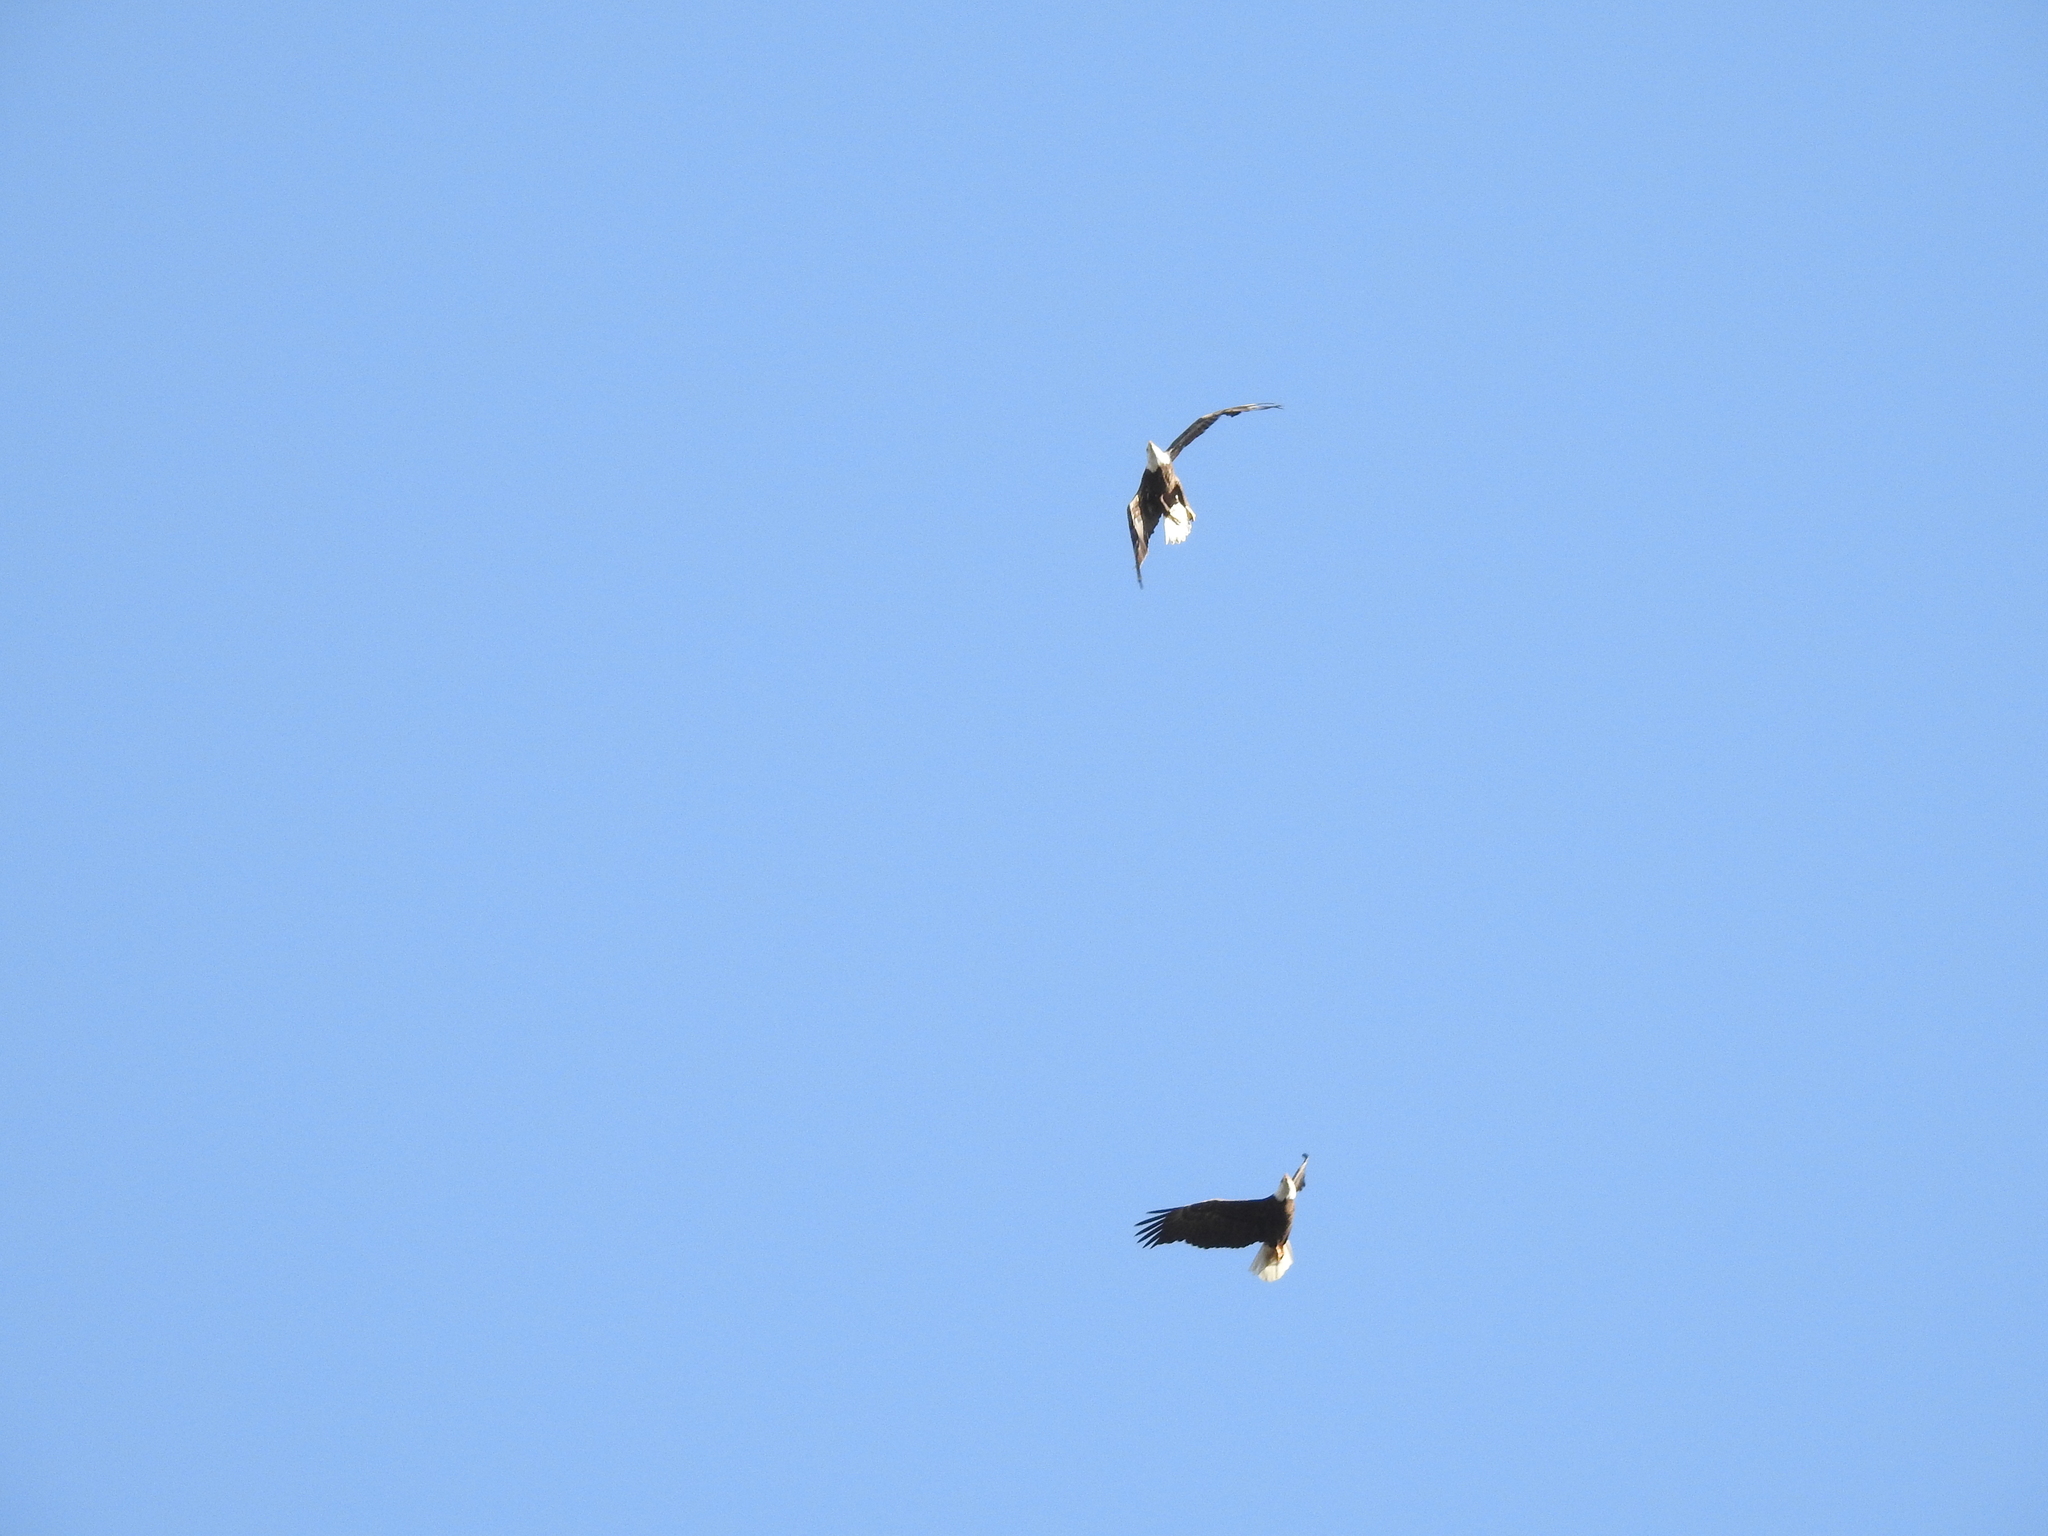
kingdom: Animalia
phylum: Chordata
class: Aves
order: Accipitriformes
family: Accipitridae
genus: Haliaeetus
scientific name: Haliaeetus leucocephalus
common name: Bald eagle
